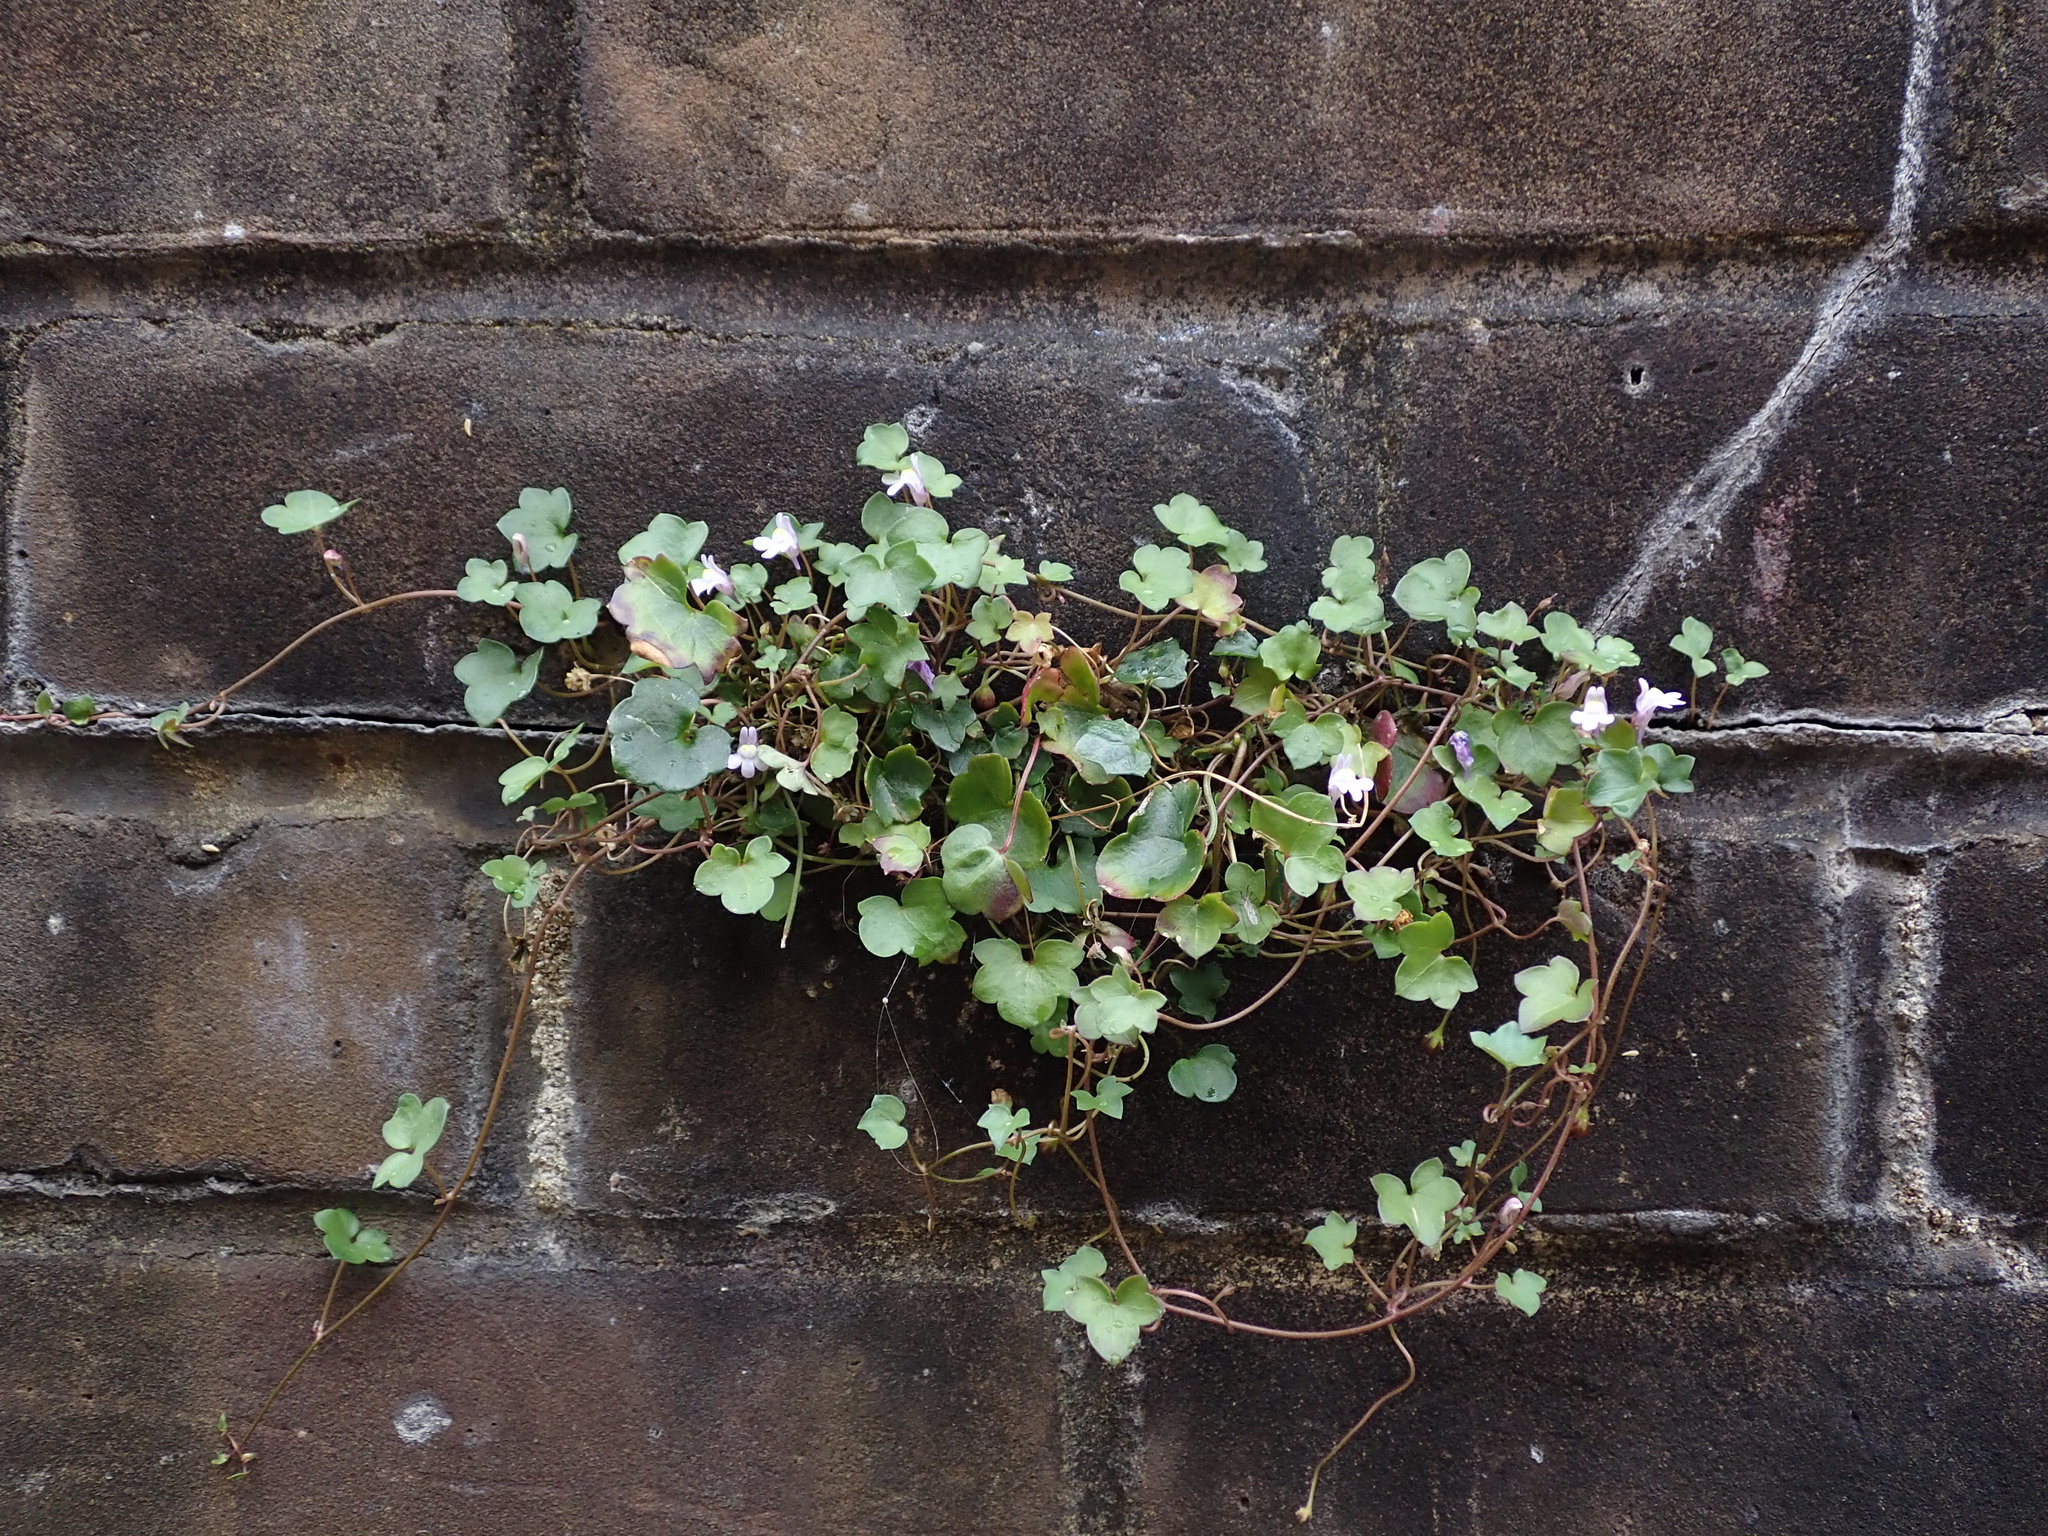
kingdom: Plantae
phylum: Tracheophyta
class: Magnoliopsida
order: Lamiales
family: Plantaginaceae
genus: Cymbalaria
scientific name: Cymbalaria muralis
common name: Ivy-leaved toadflax
